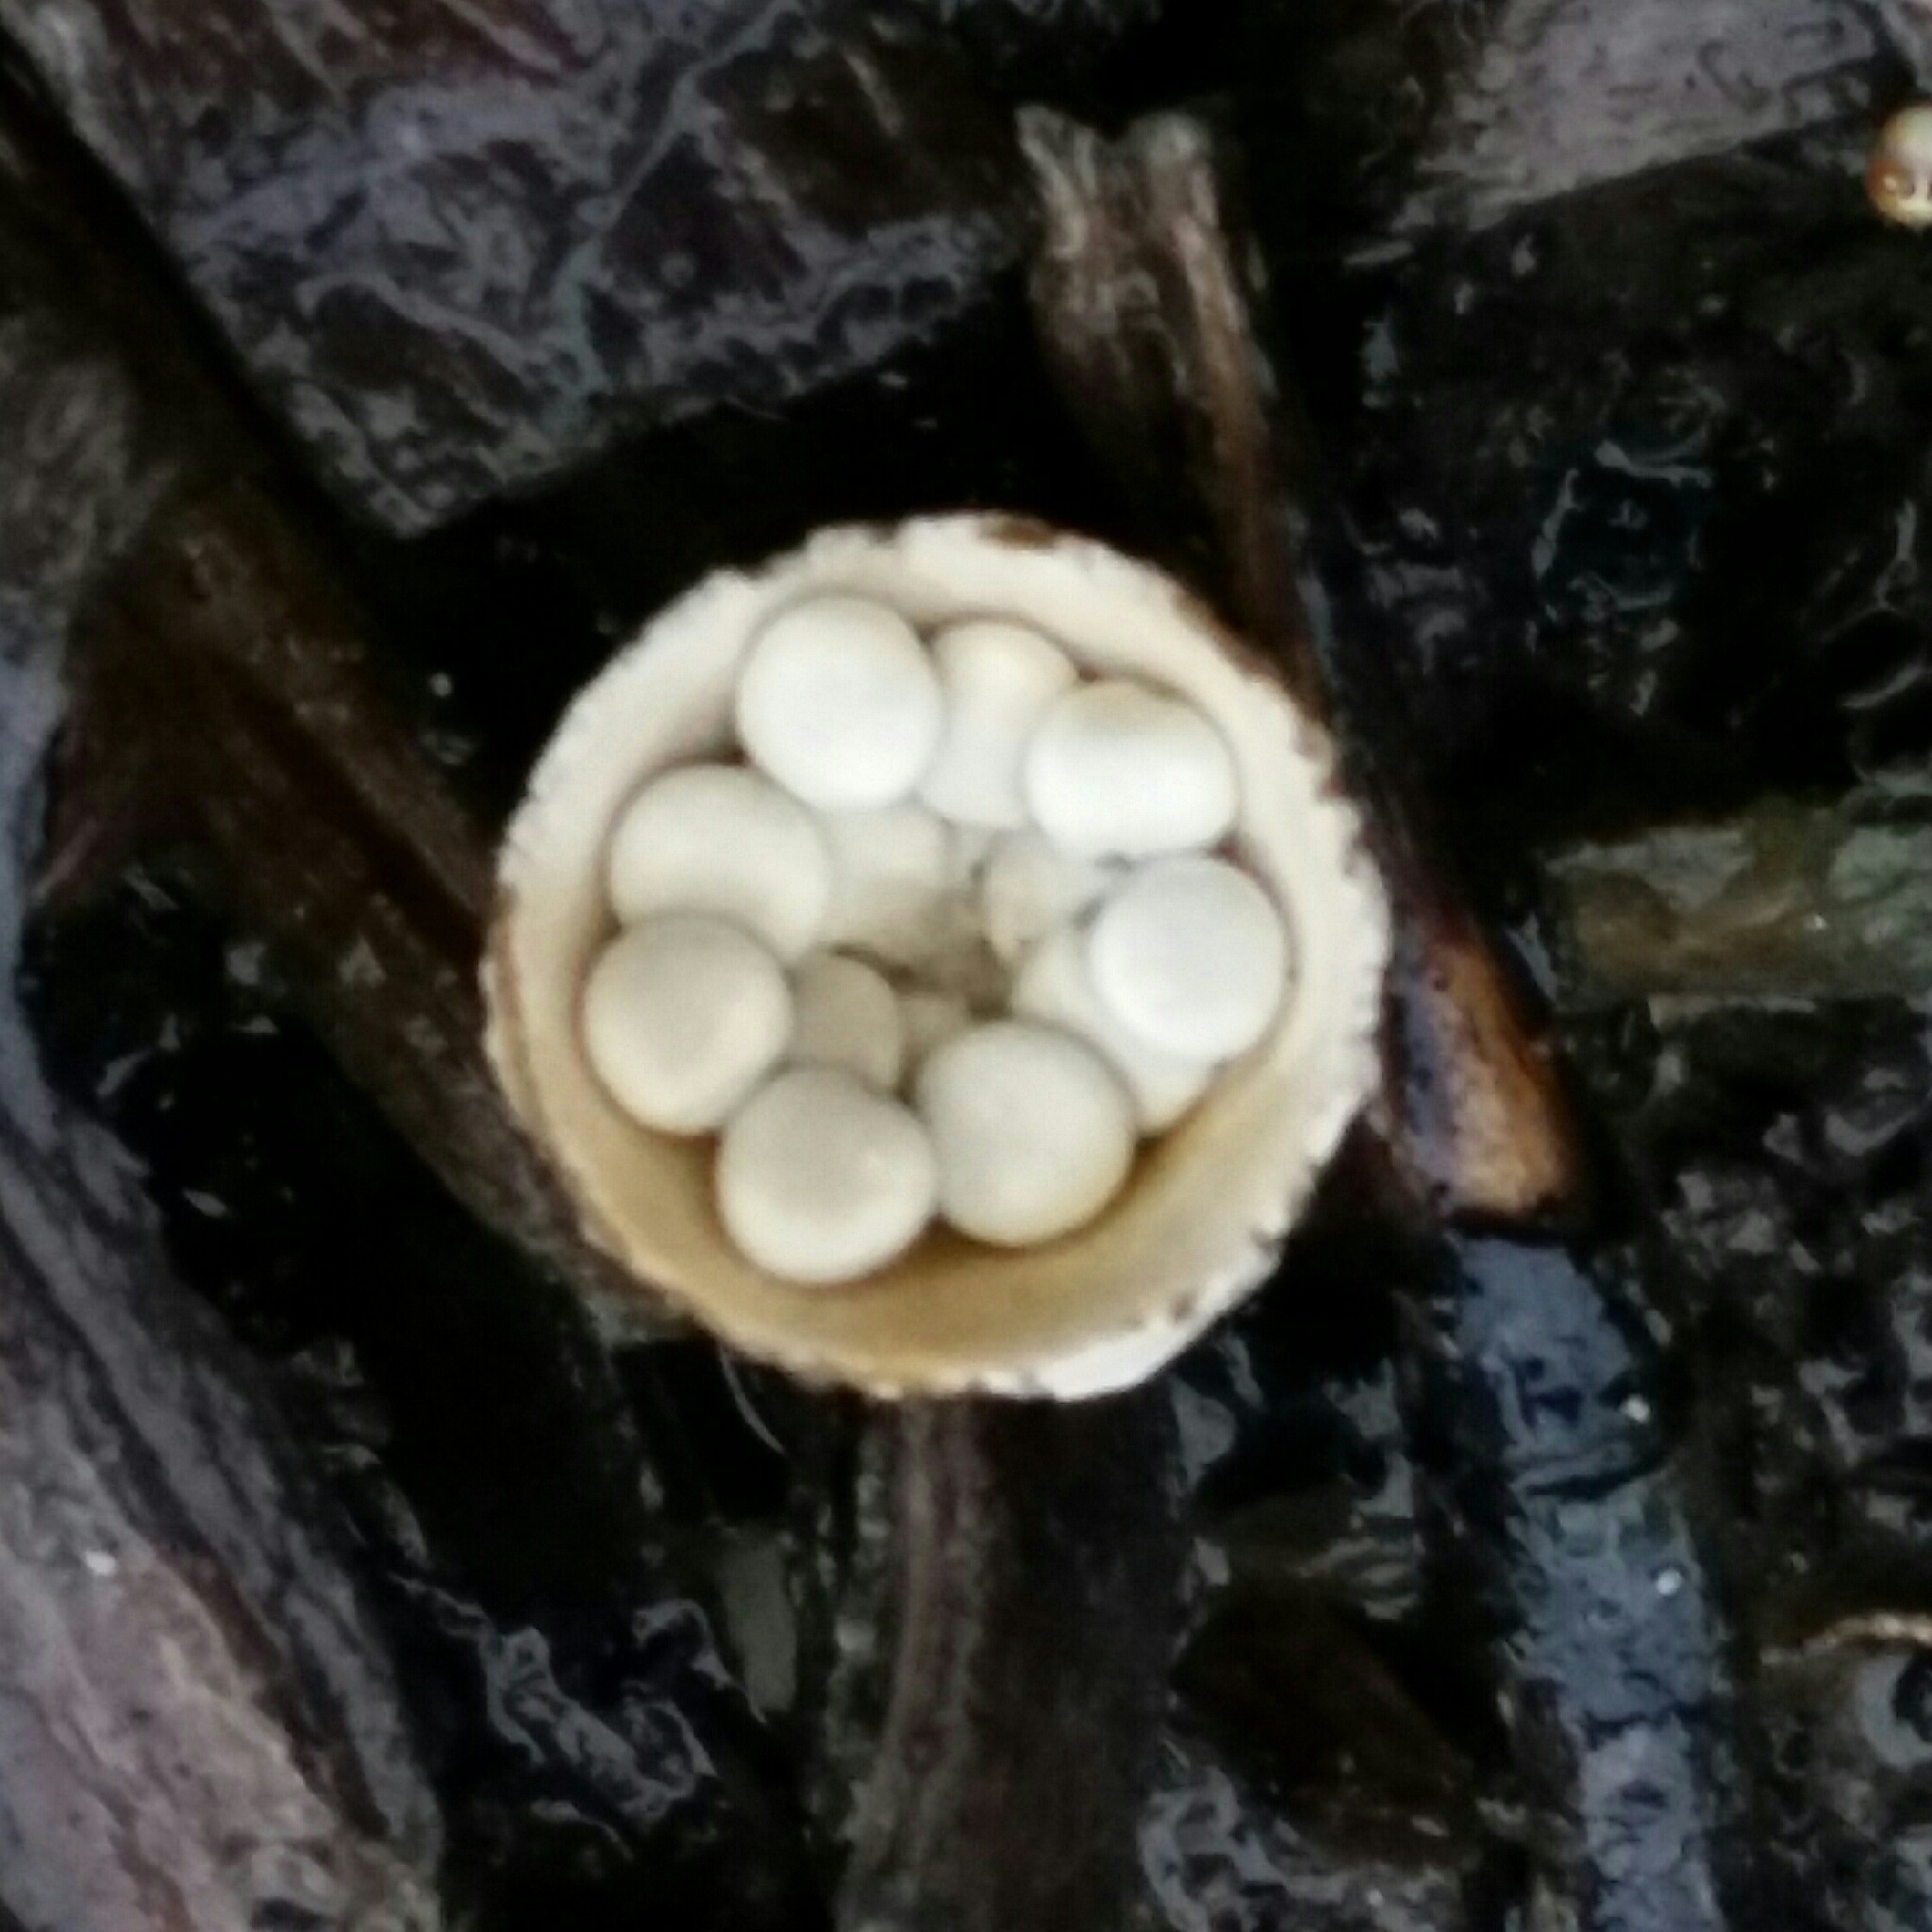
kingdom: Fungi
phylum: Basidiomycota
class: Agaricomycetes
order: Agaricales
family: Nidulariaceae
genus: Crucibulum
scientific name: Crucibulum laeve
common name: Common bird's nest
